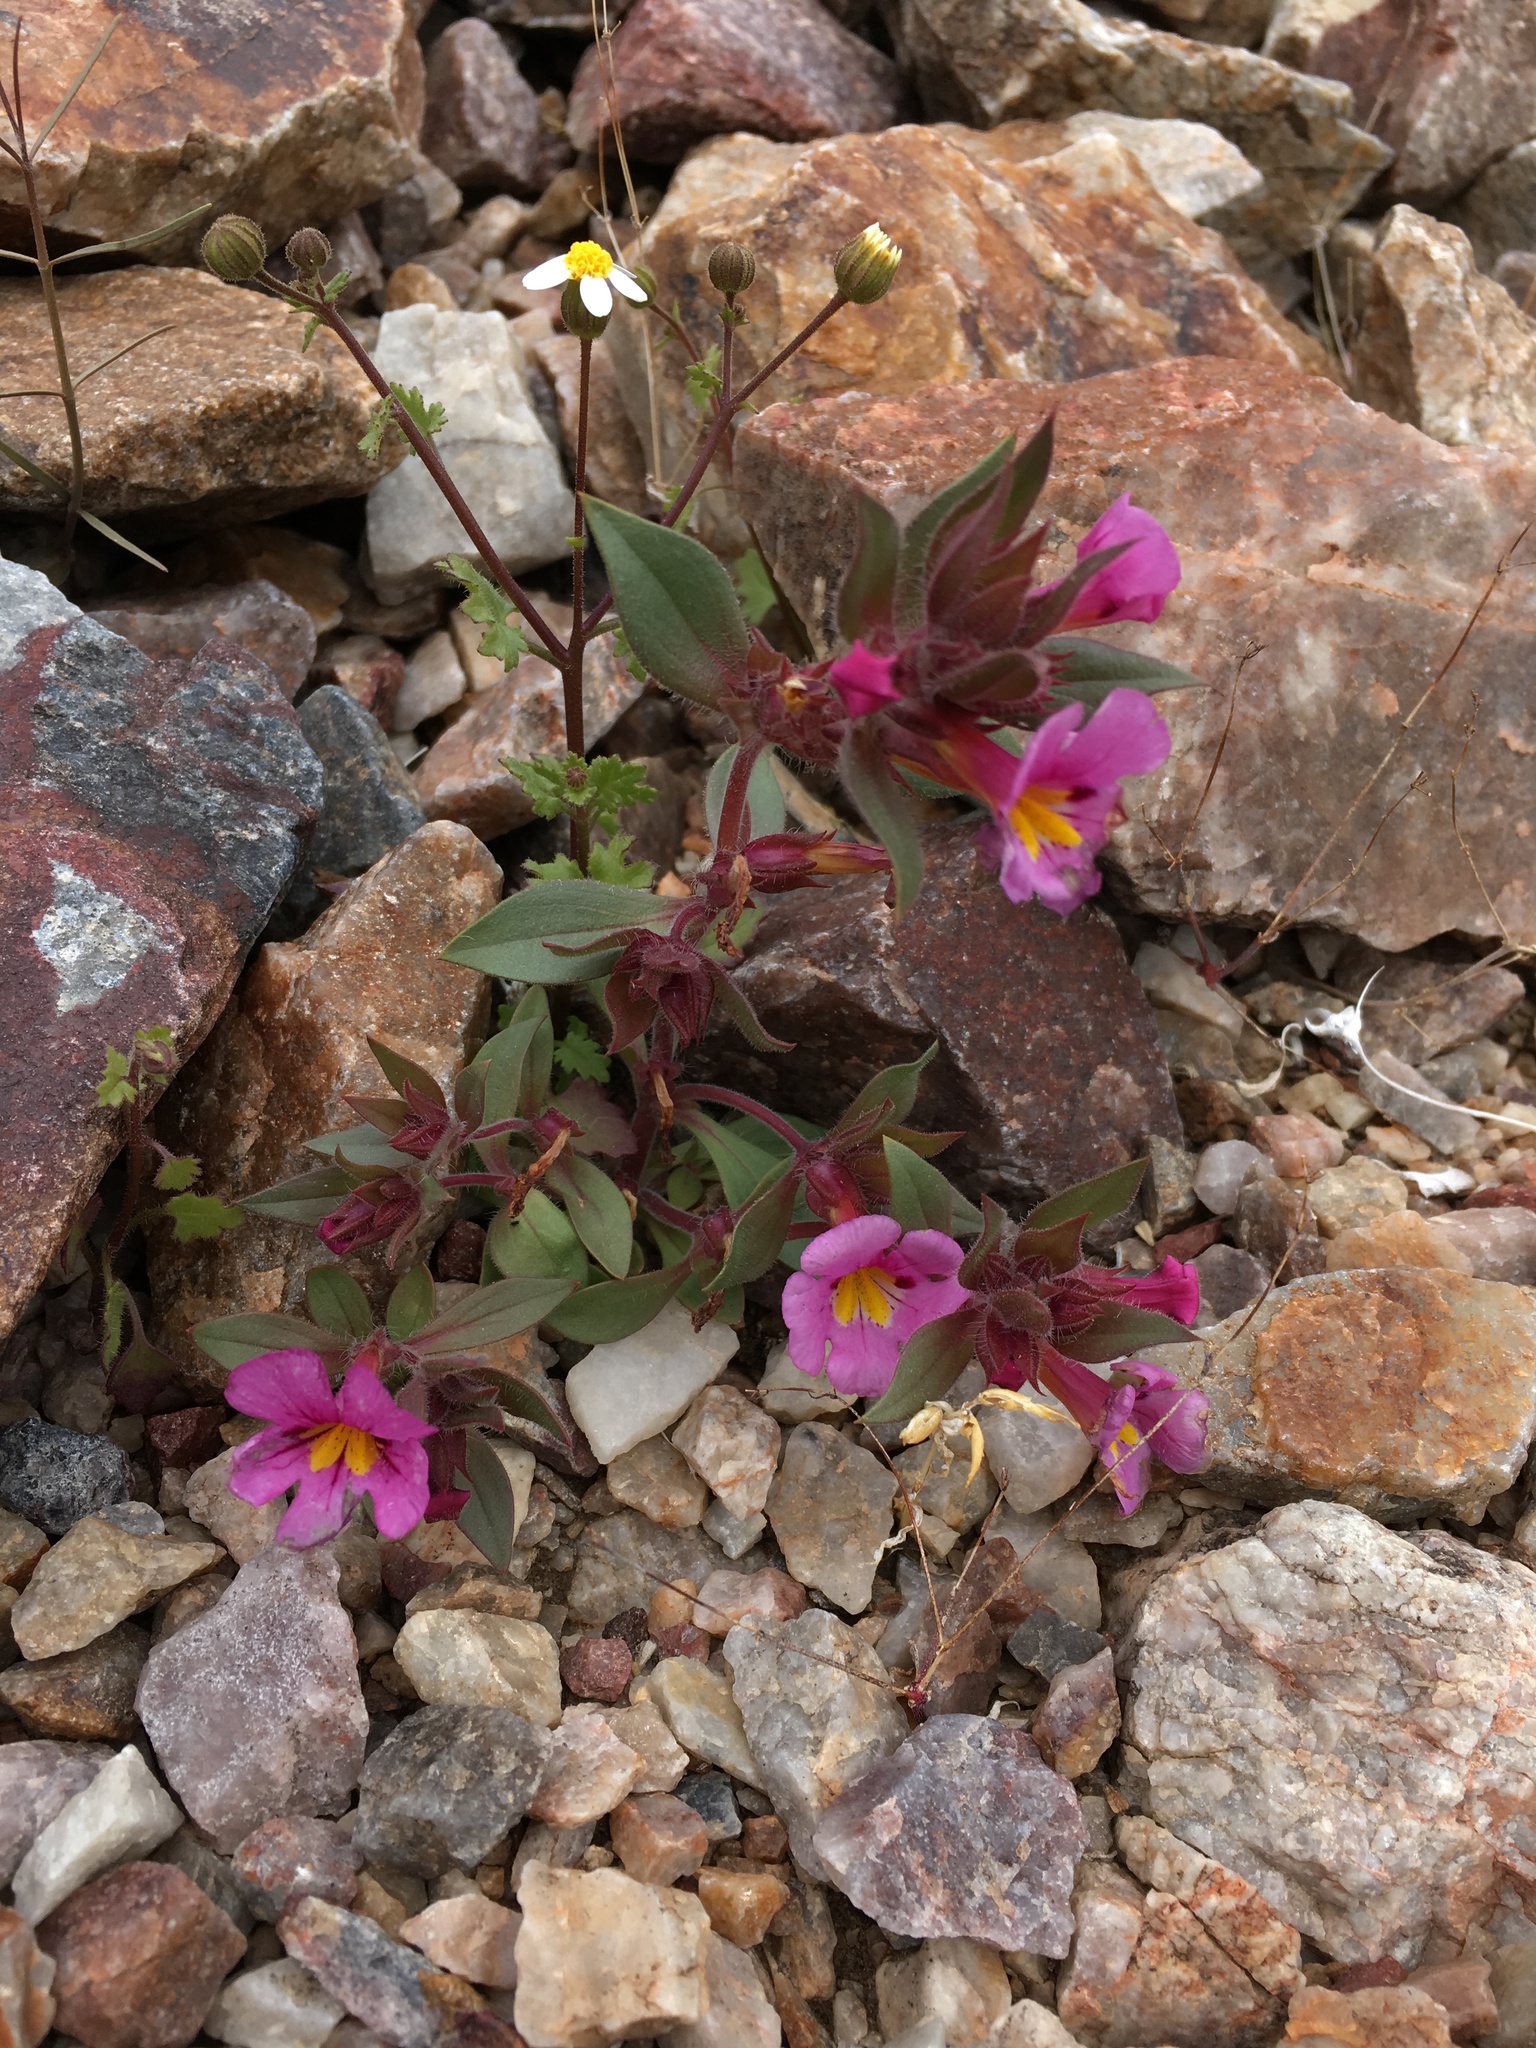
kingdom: Plantae
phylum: Tracheophyta
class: Magnoliopsida
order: Lamiales
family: Phrymaceae
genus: Diplacus
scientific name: Diplacus bigelovii
